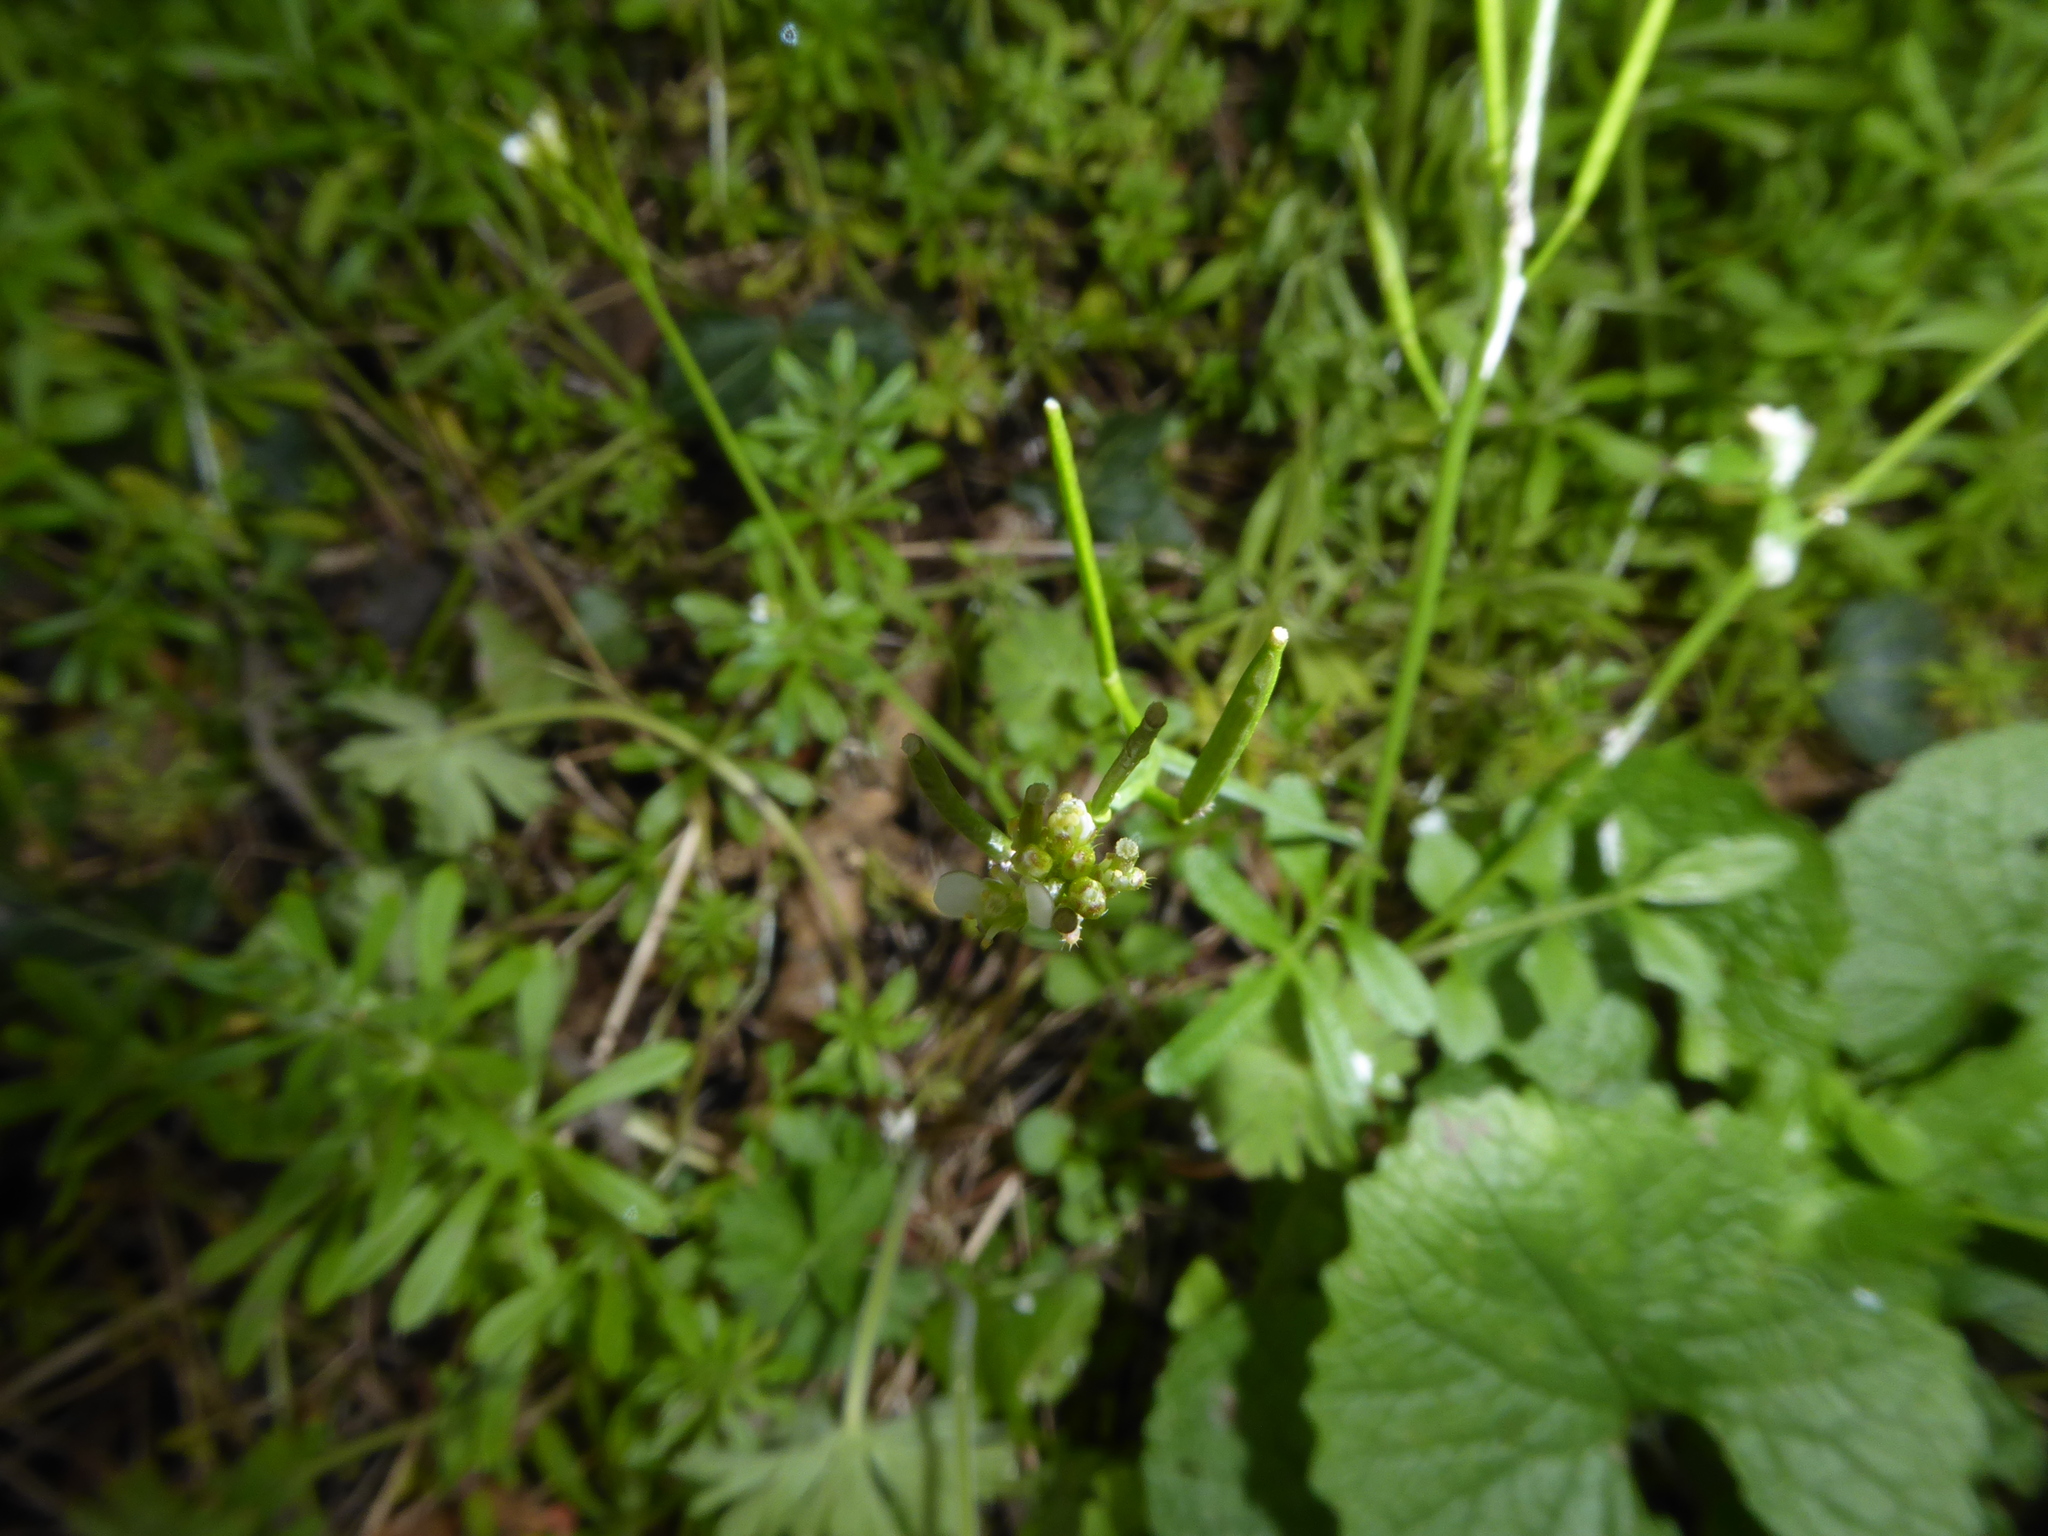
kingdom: Plantae
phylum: Tracheophyta
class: Magnoliopsida
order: Brassicales
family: Brassicaceae
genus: Cardamine
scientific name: Cardamine flexuosa
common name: Woodland bittercress
